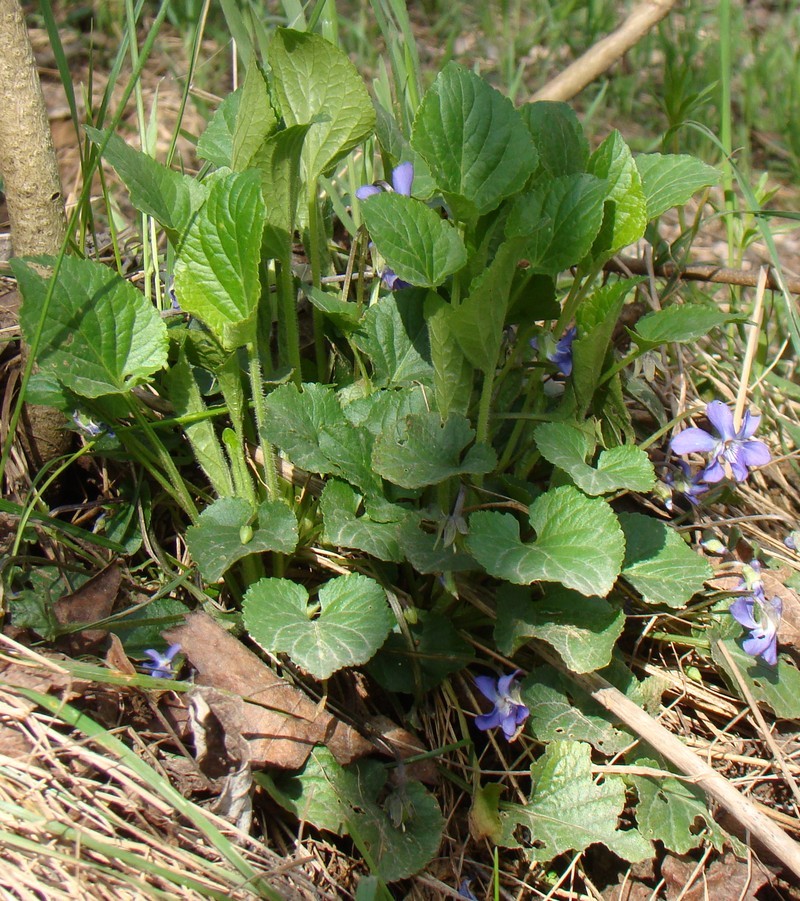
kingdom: Plantae
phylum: Tracheophyta
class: Magnoliopsida
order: Malpighiales
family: Violaceae
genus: Viola
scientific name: Viola suavis
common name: Russian violet
